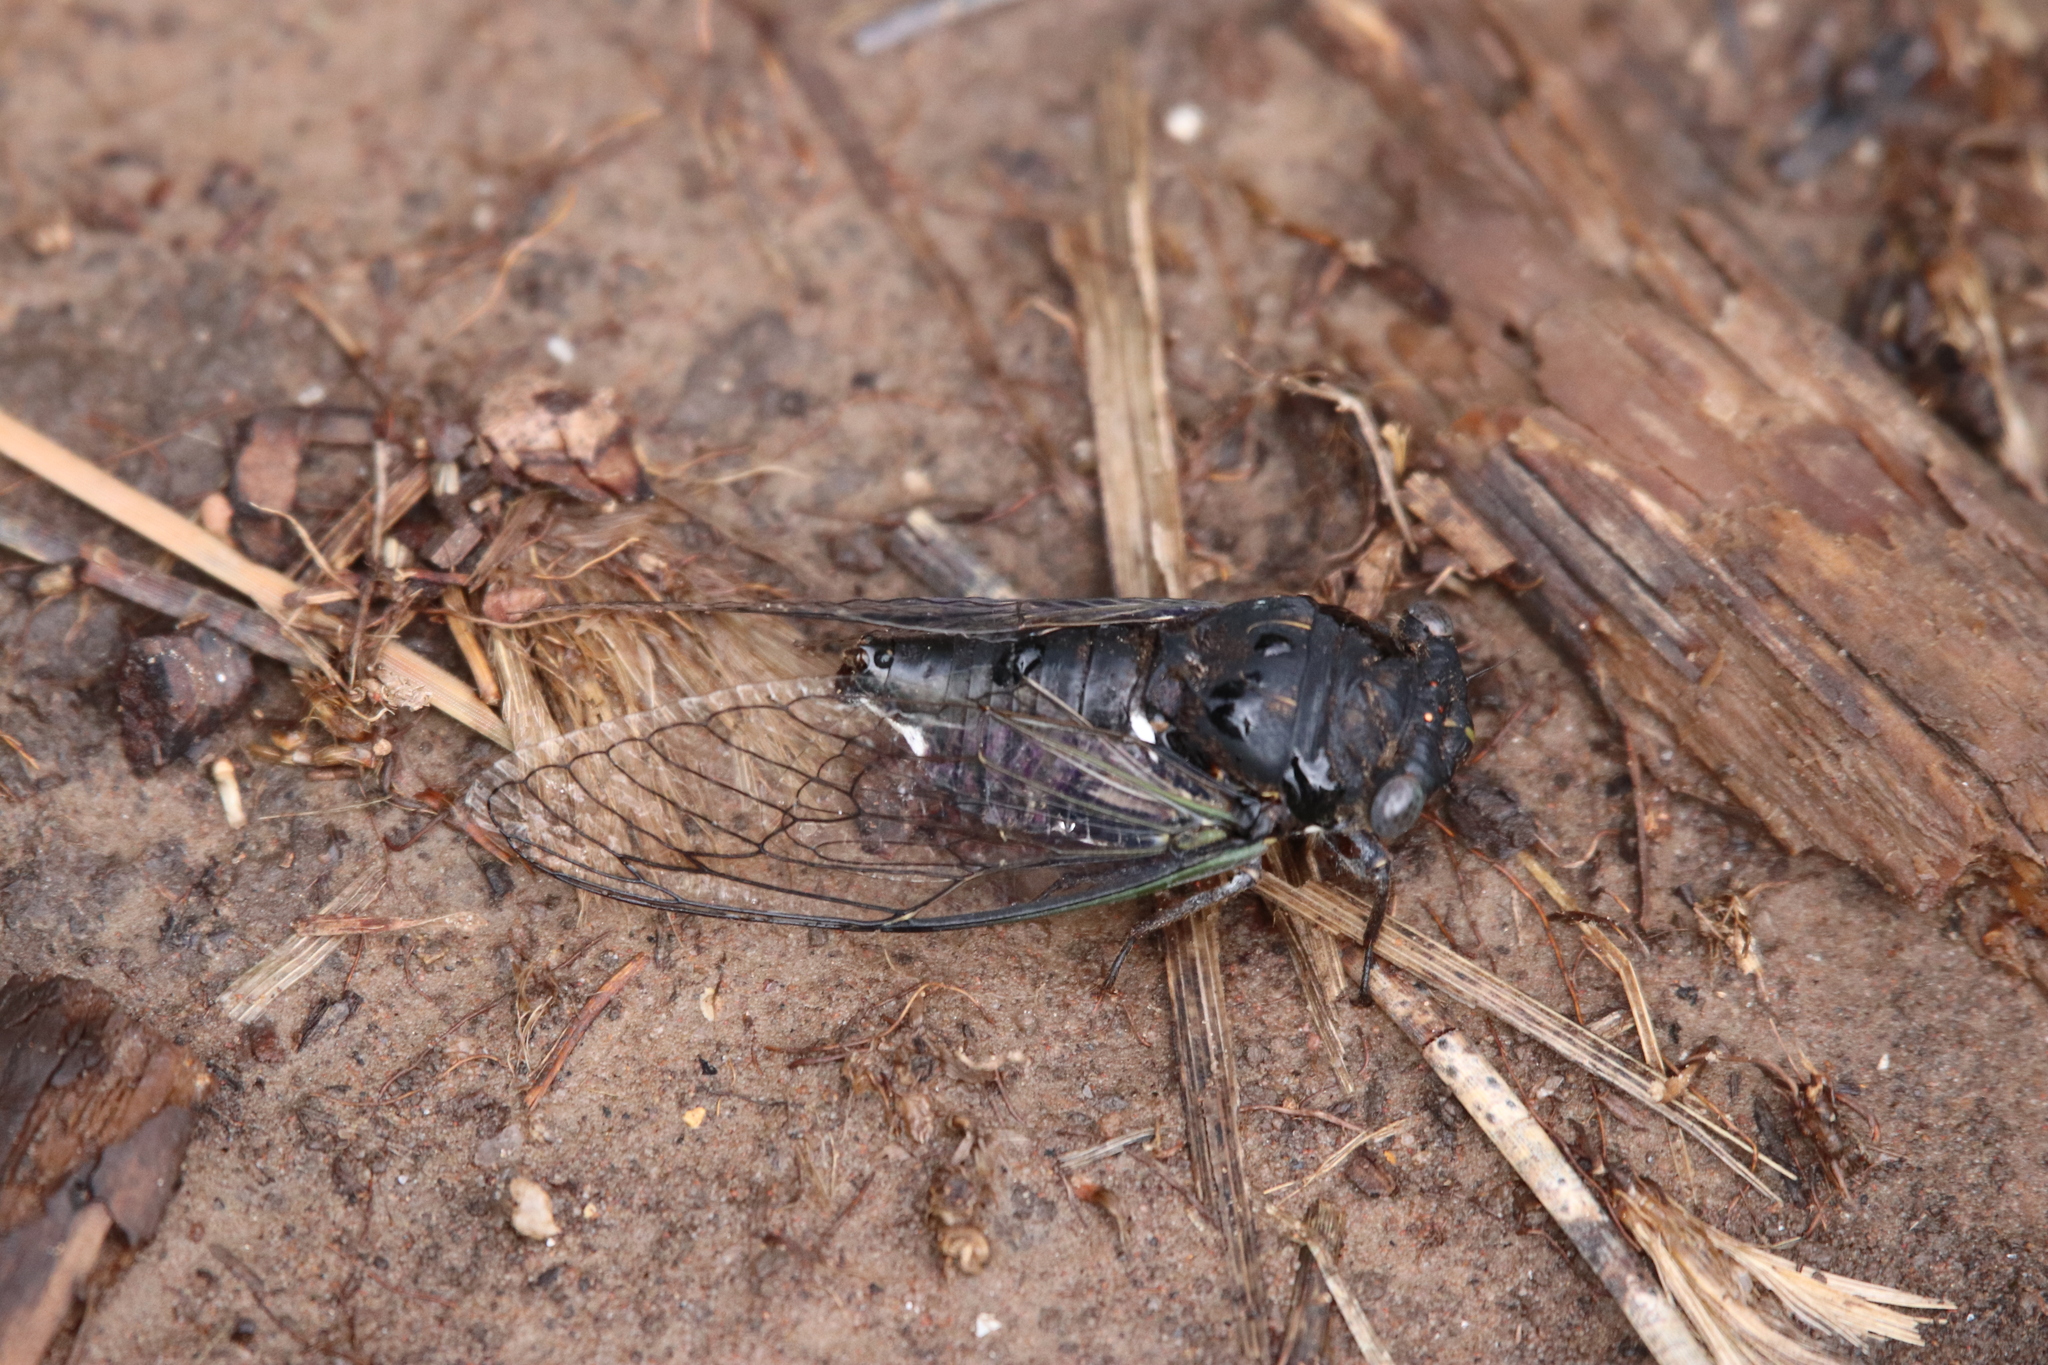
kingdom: Animalia
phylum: Arthropoda
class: Insecta
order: Hemiptera
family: Cicadidae
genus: Neotibicen
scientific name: Neotibicen canicularis
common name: God-day cicada
